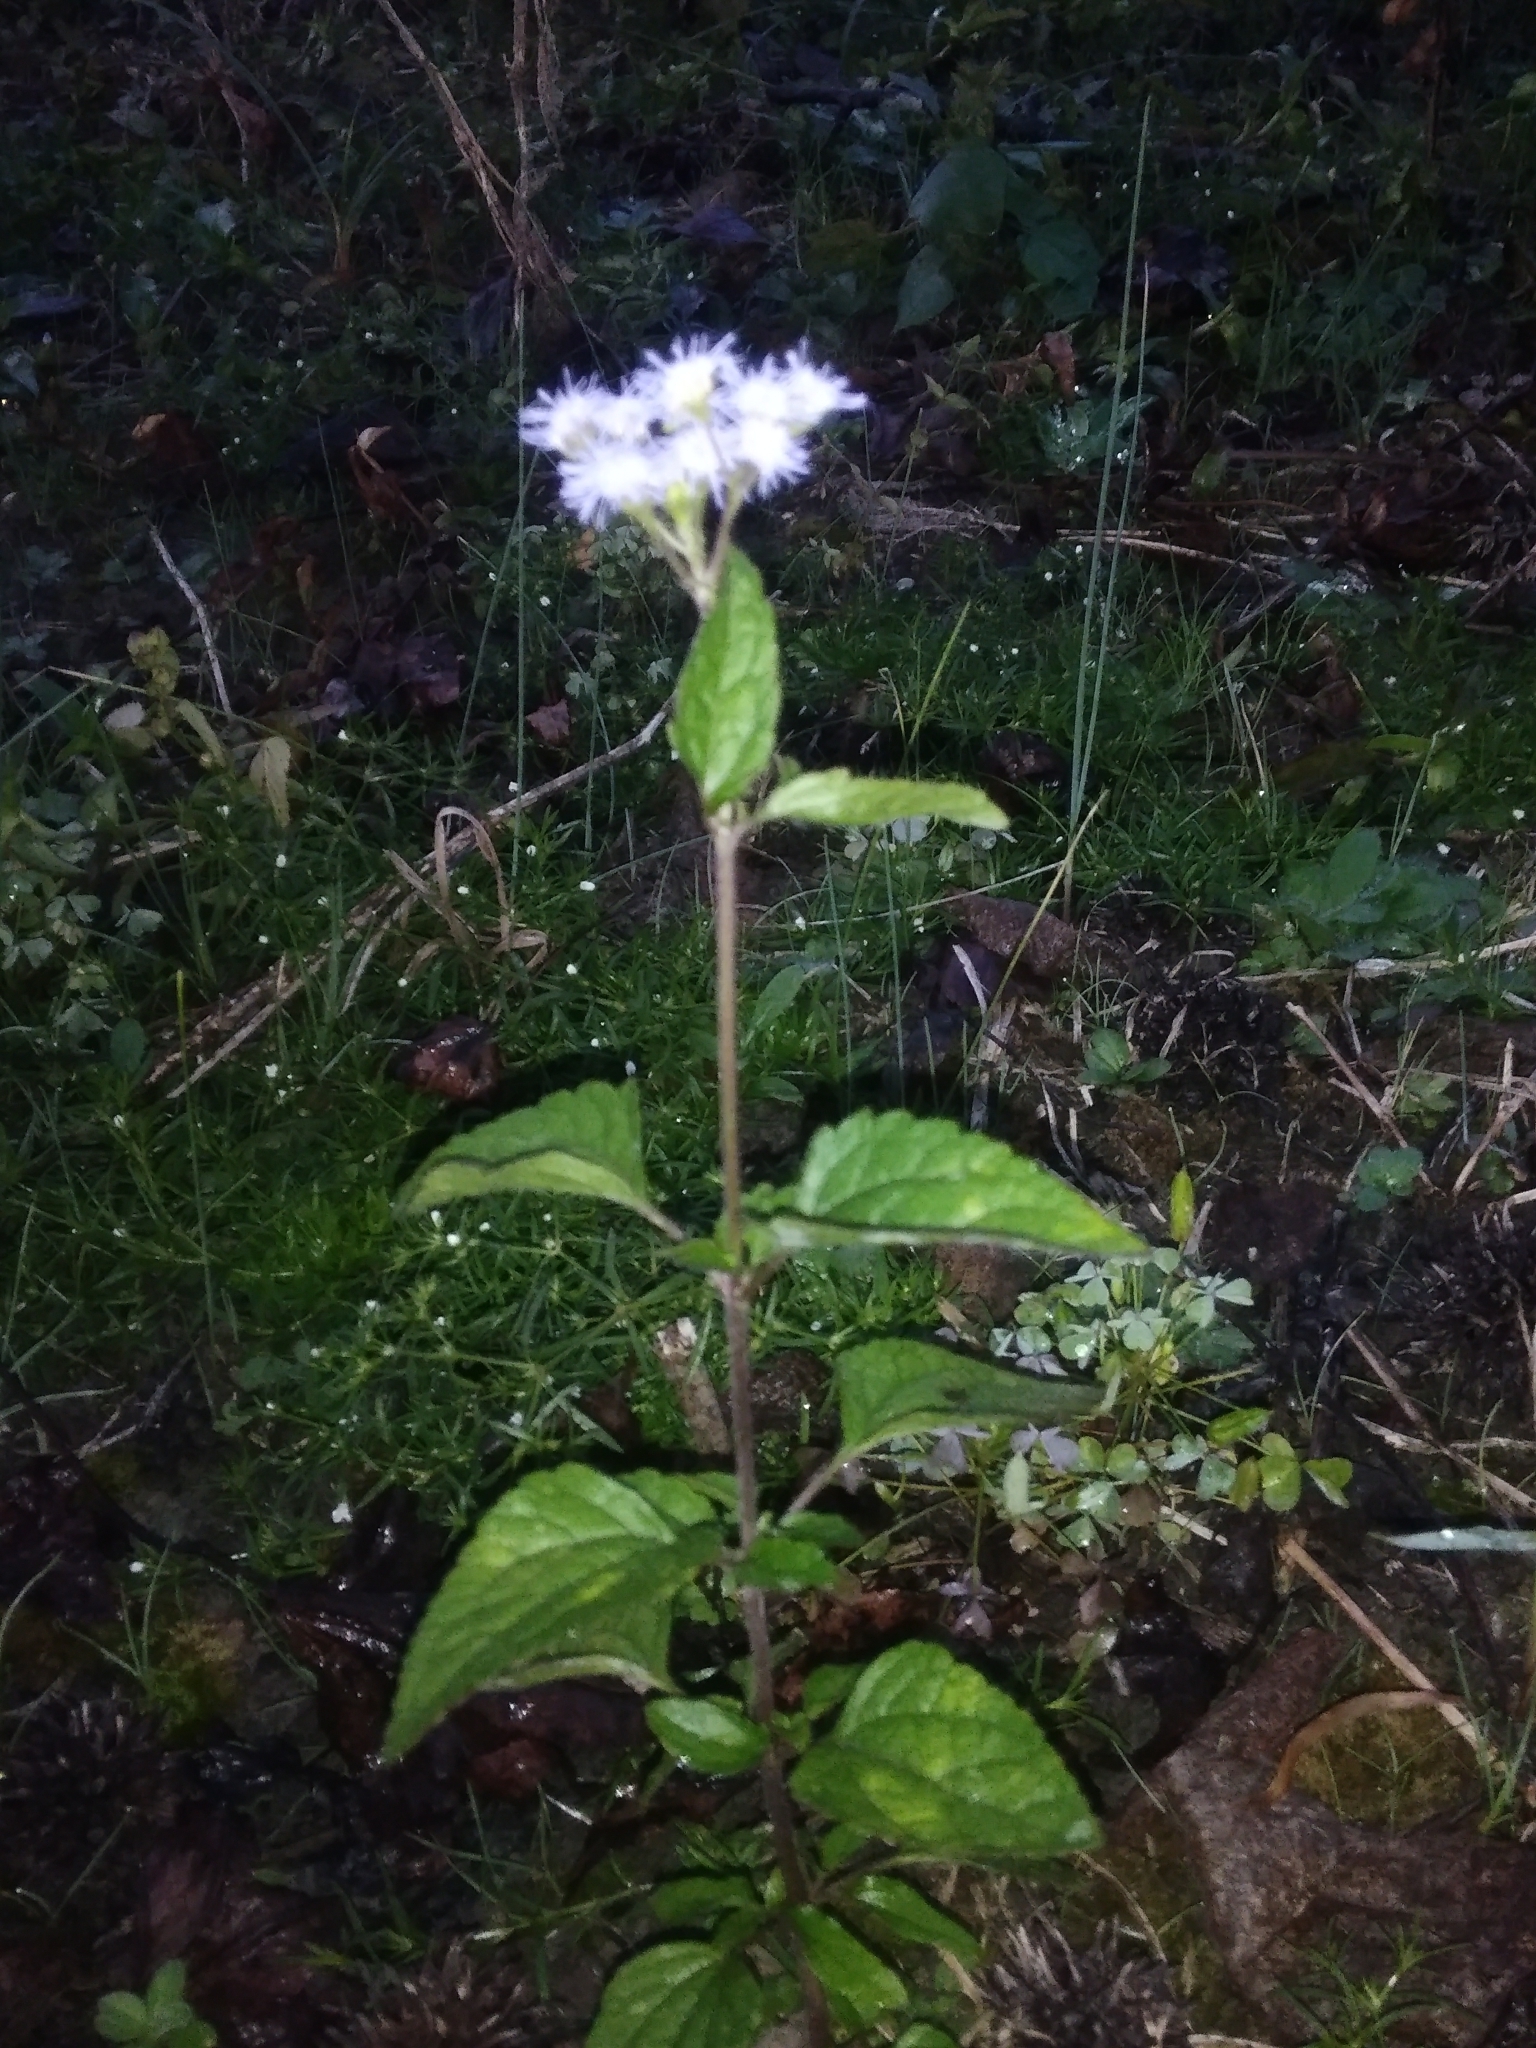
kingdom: Plantae
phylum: Tracheophyta
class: Magnoliopsida
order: Asterales
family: Asteraceae
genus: Conoclinium
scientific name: Conoclinium coelestinum
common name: Blue mistflower
